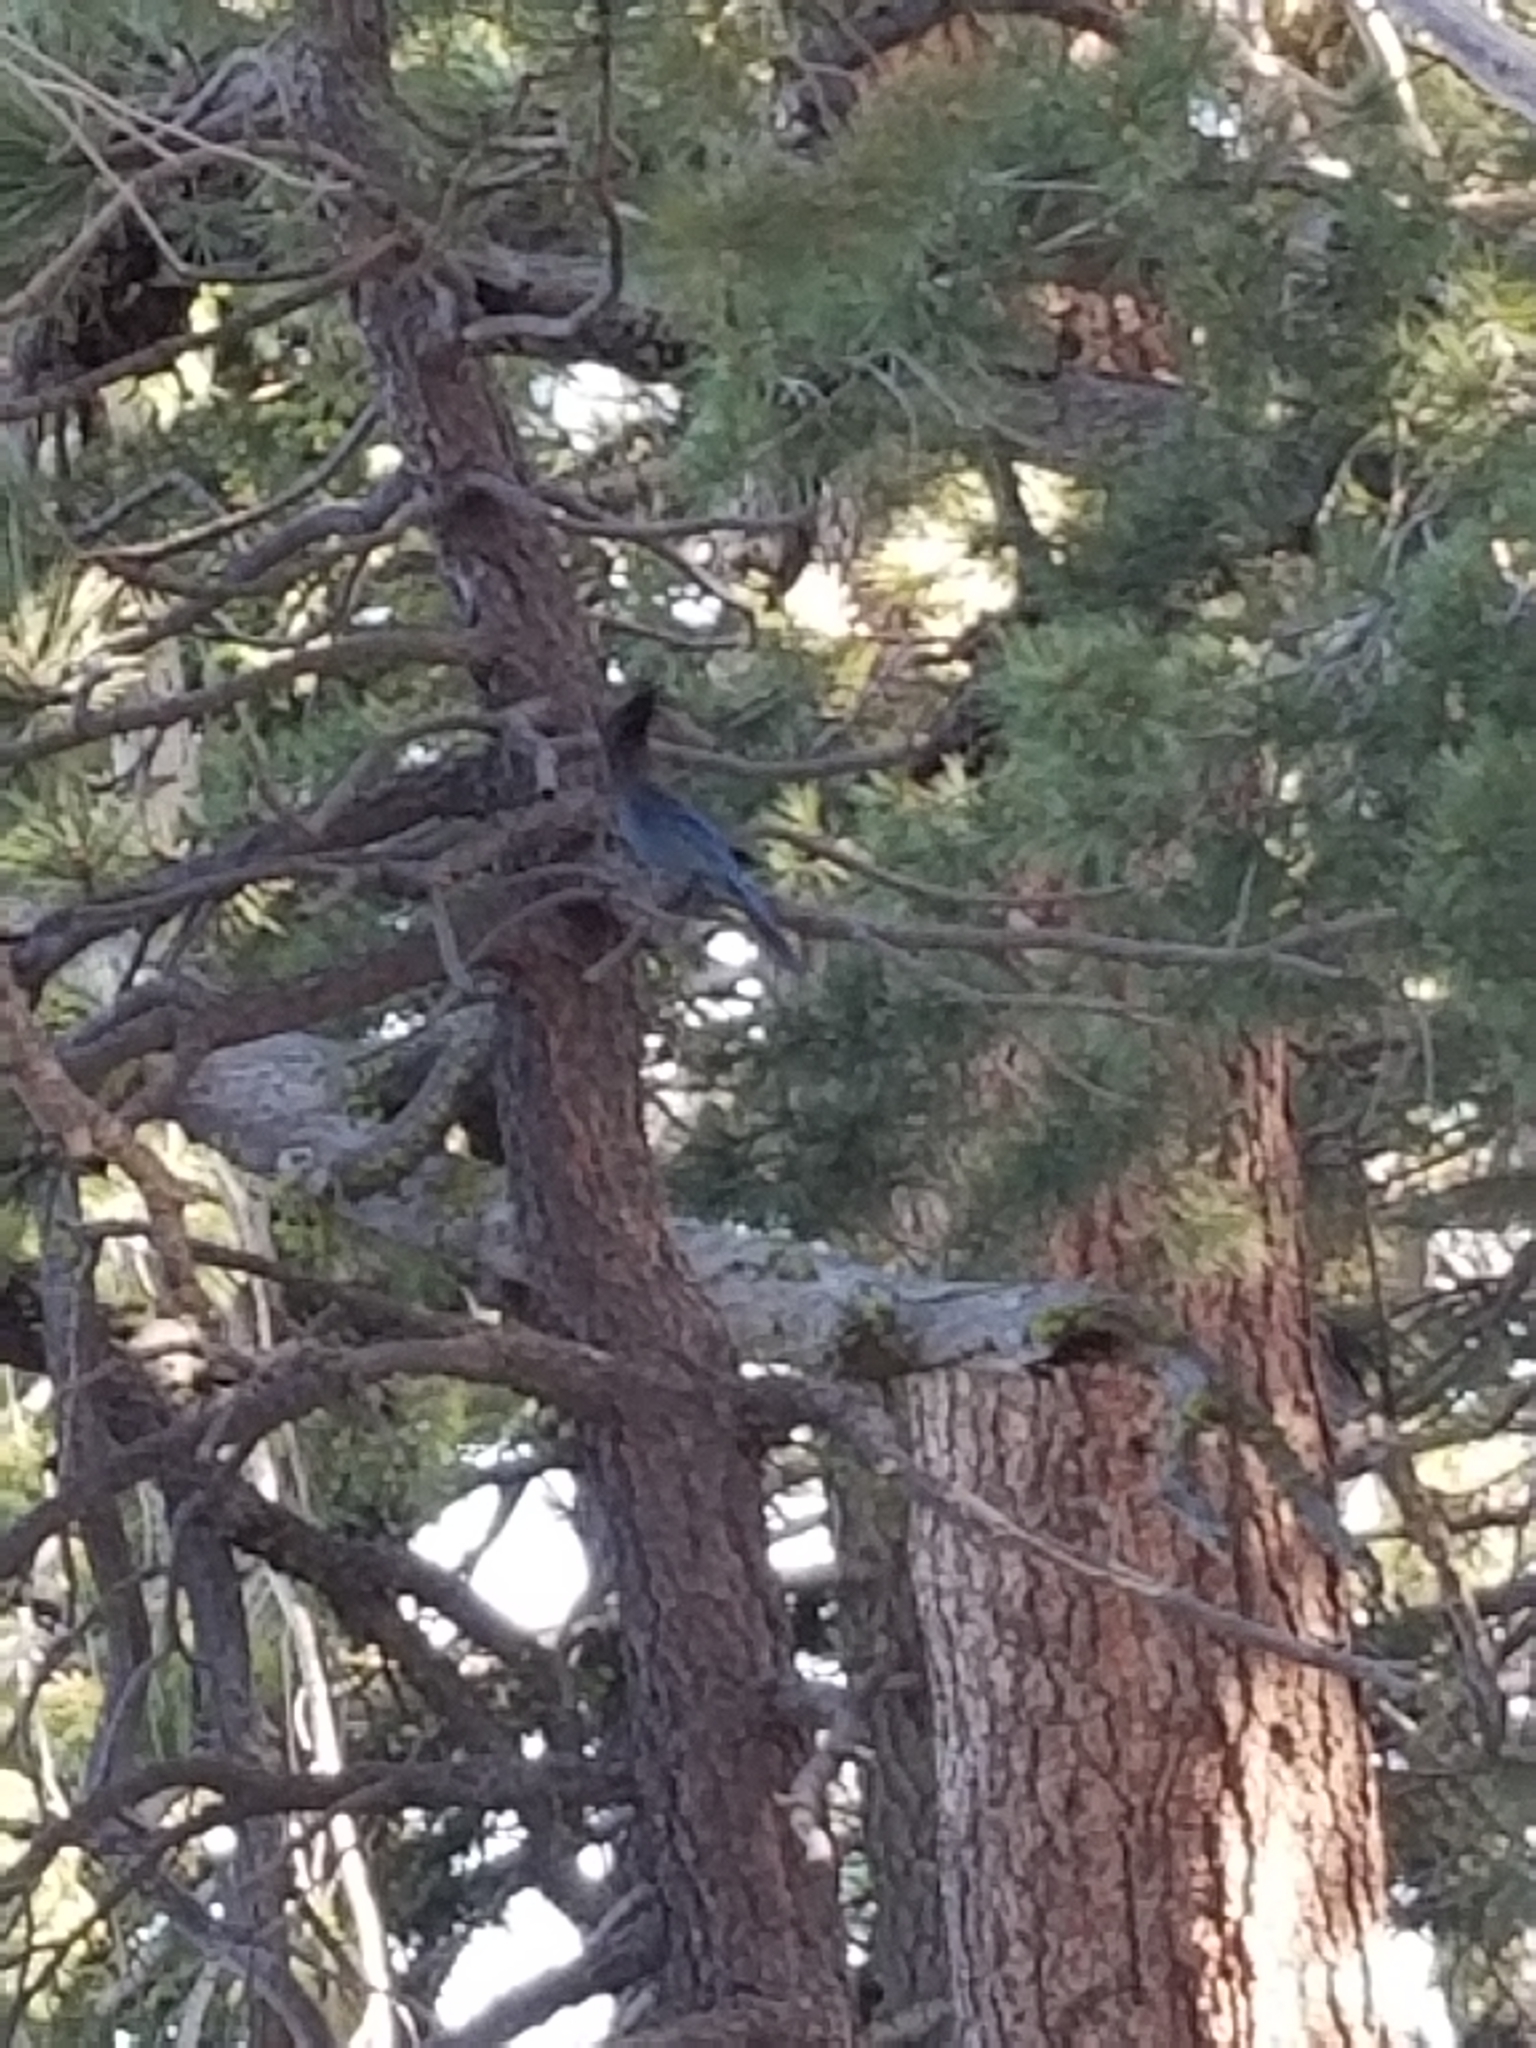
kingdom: Animalia
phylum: Chordata
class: Aves
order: Passeriformes
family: Corvidae
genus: Cyanocitta
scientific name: Cyanocitta stelleri
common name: Steller's jay
